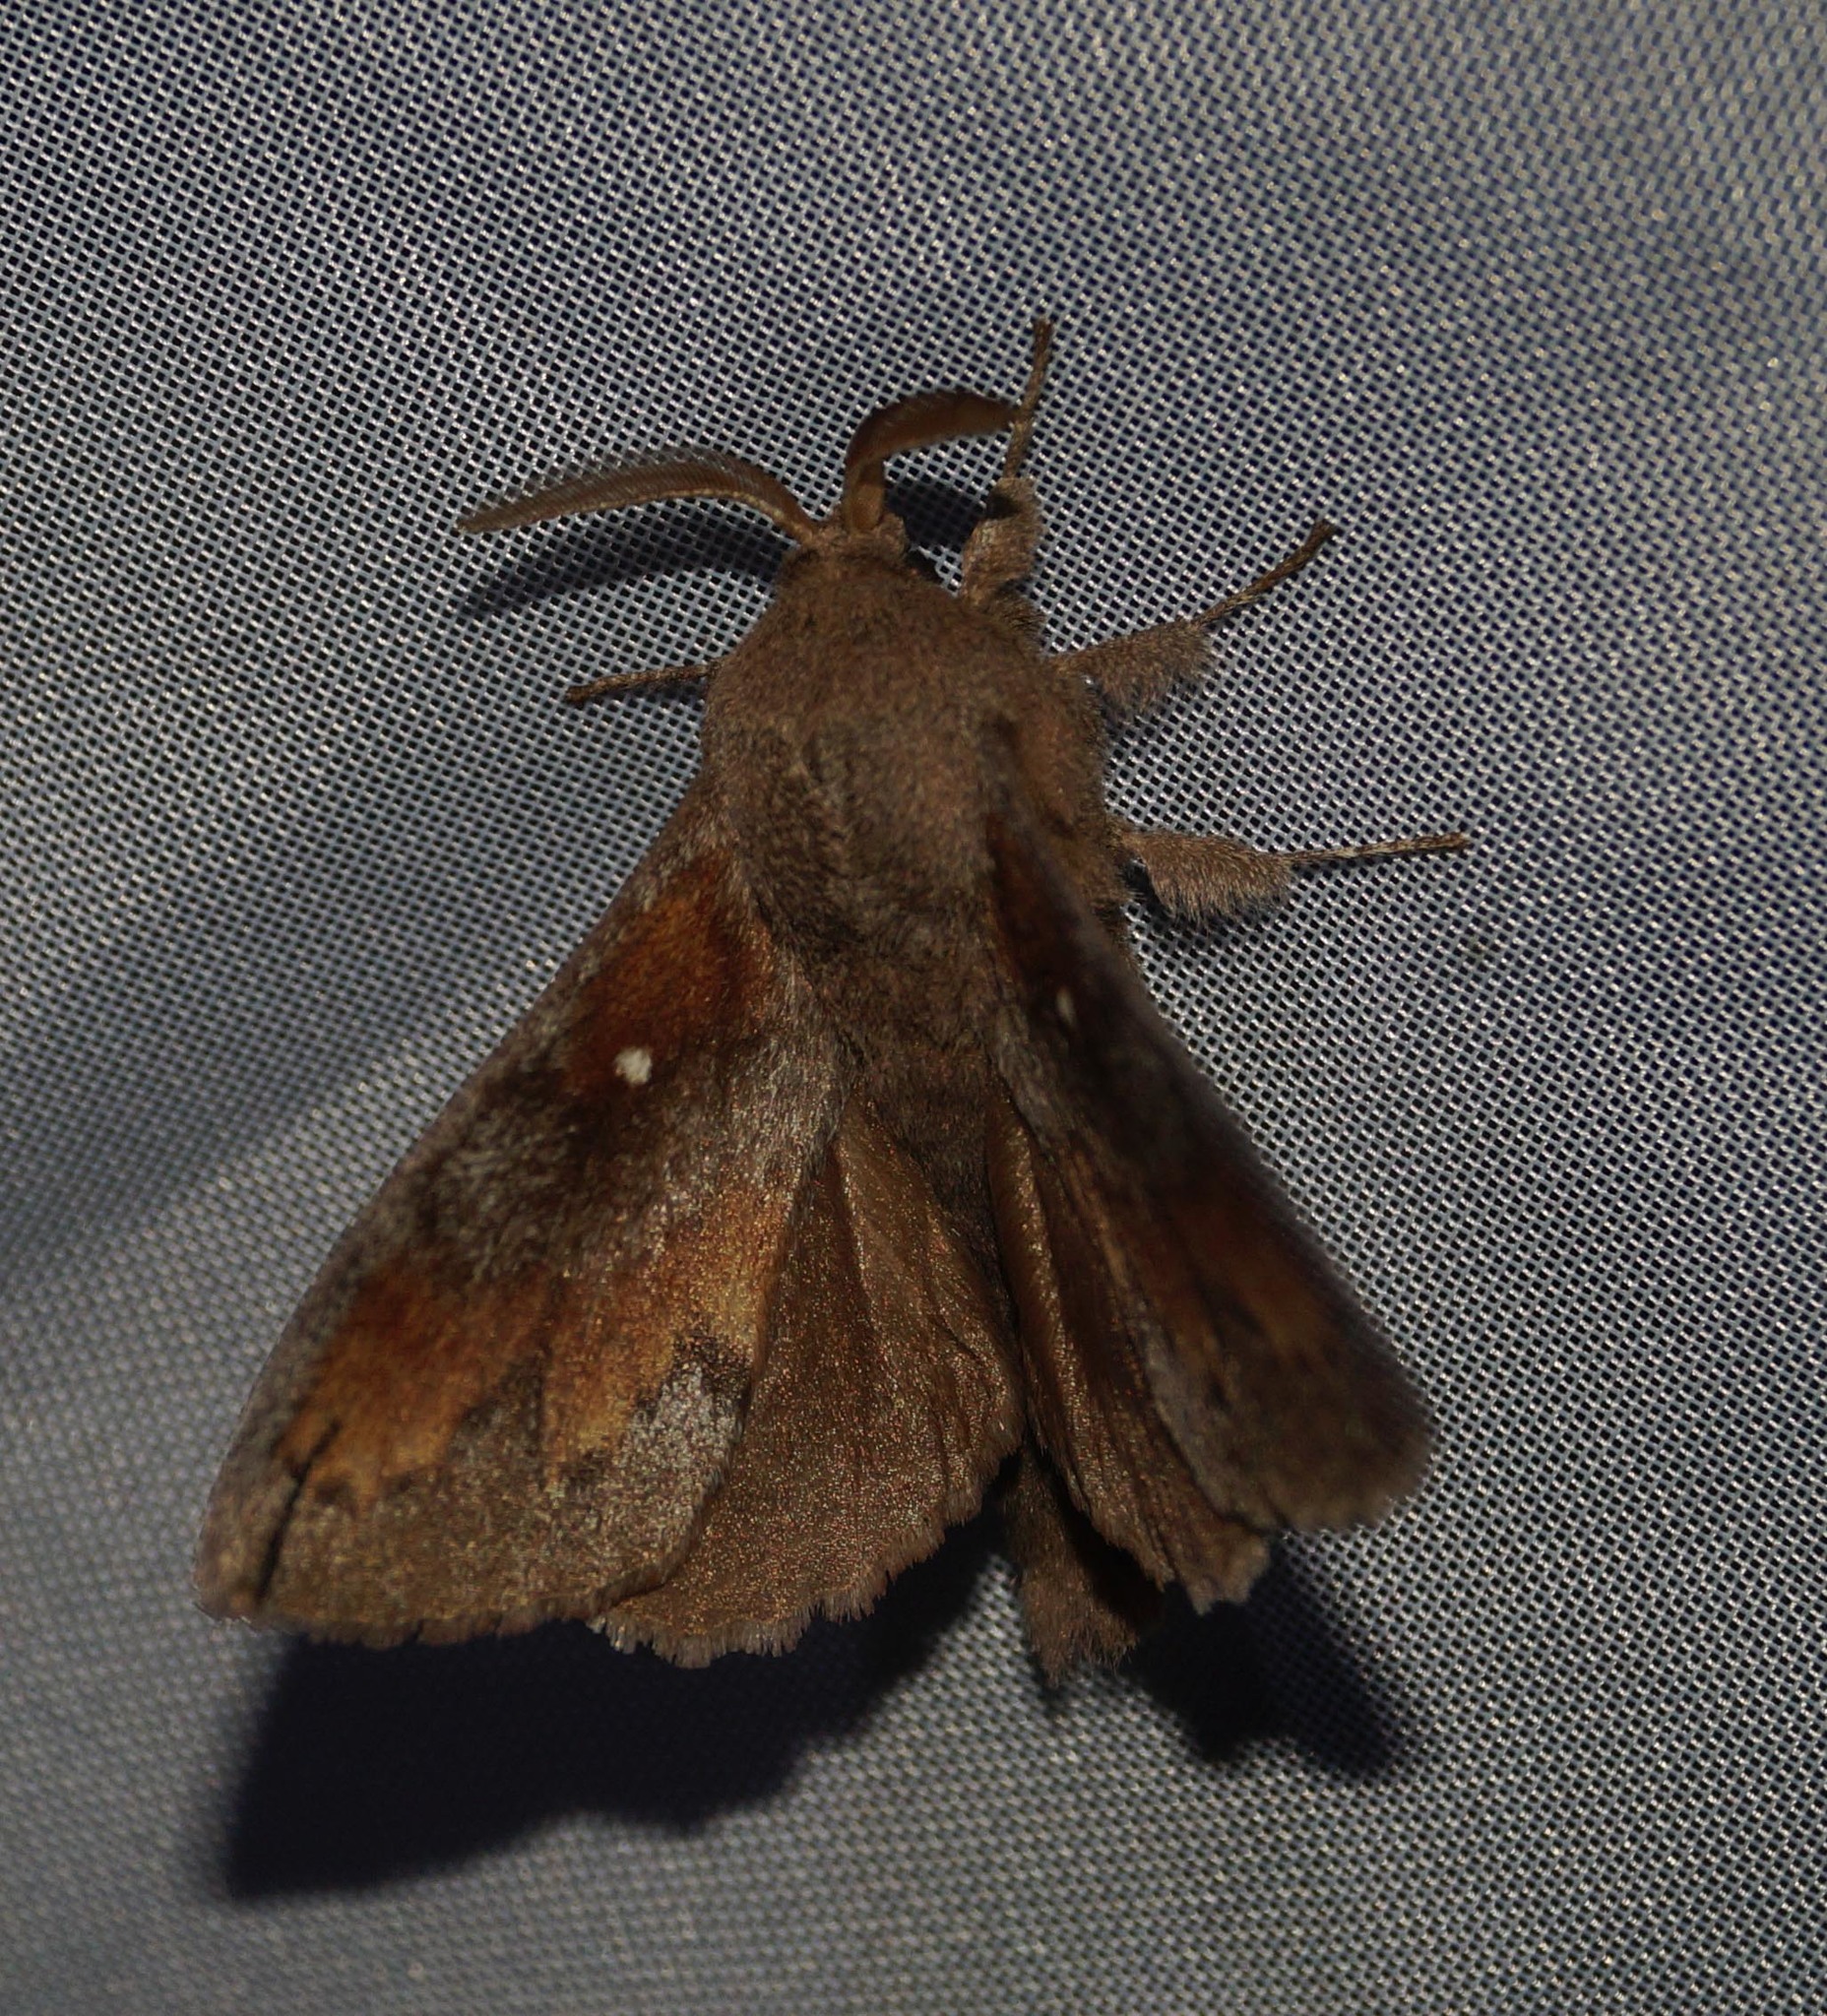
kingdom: Animalia
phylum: Arthropoda
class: Insecta
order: Lepidoptera
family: Lasiocampidae
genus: Dendrolimus
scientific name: Dendrolimus pini
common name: Pine-tree lappet
